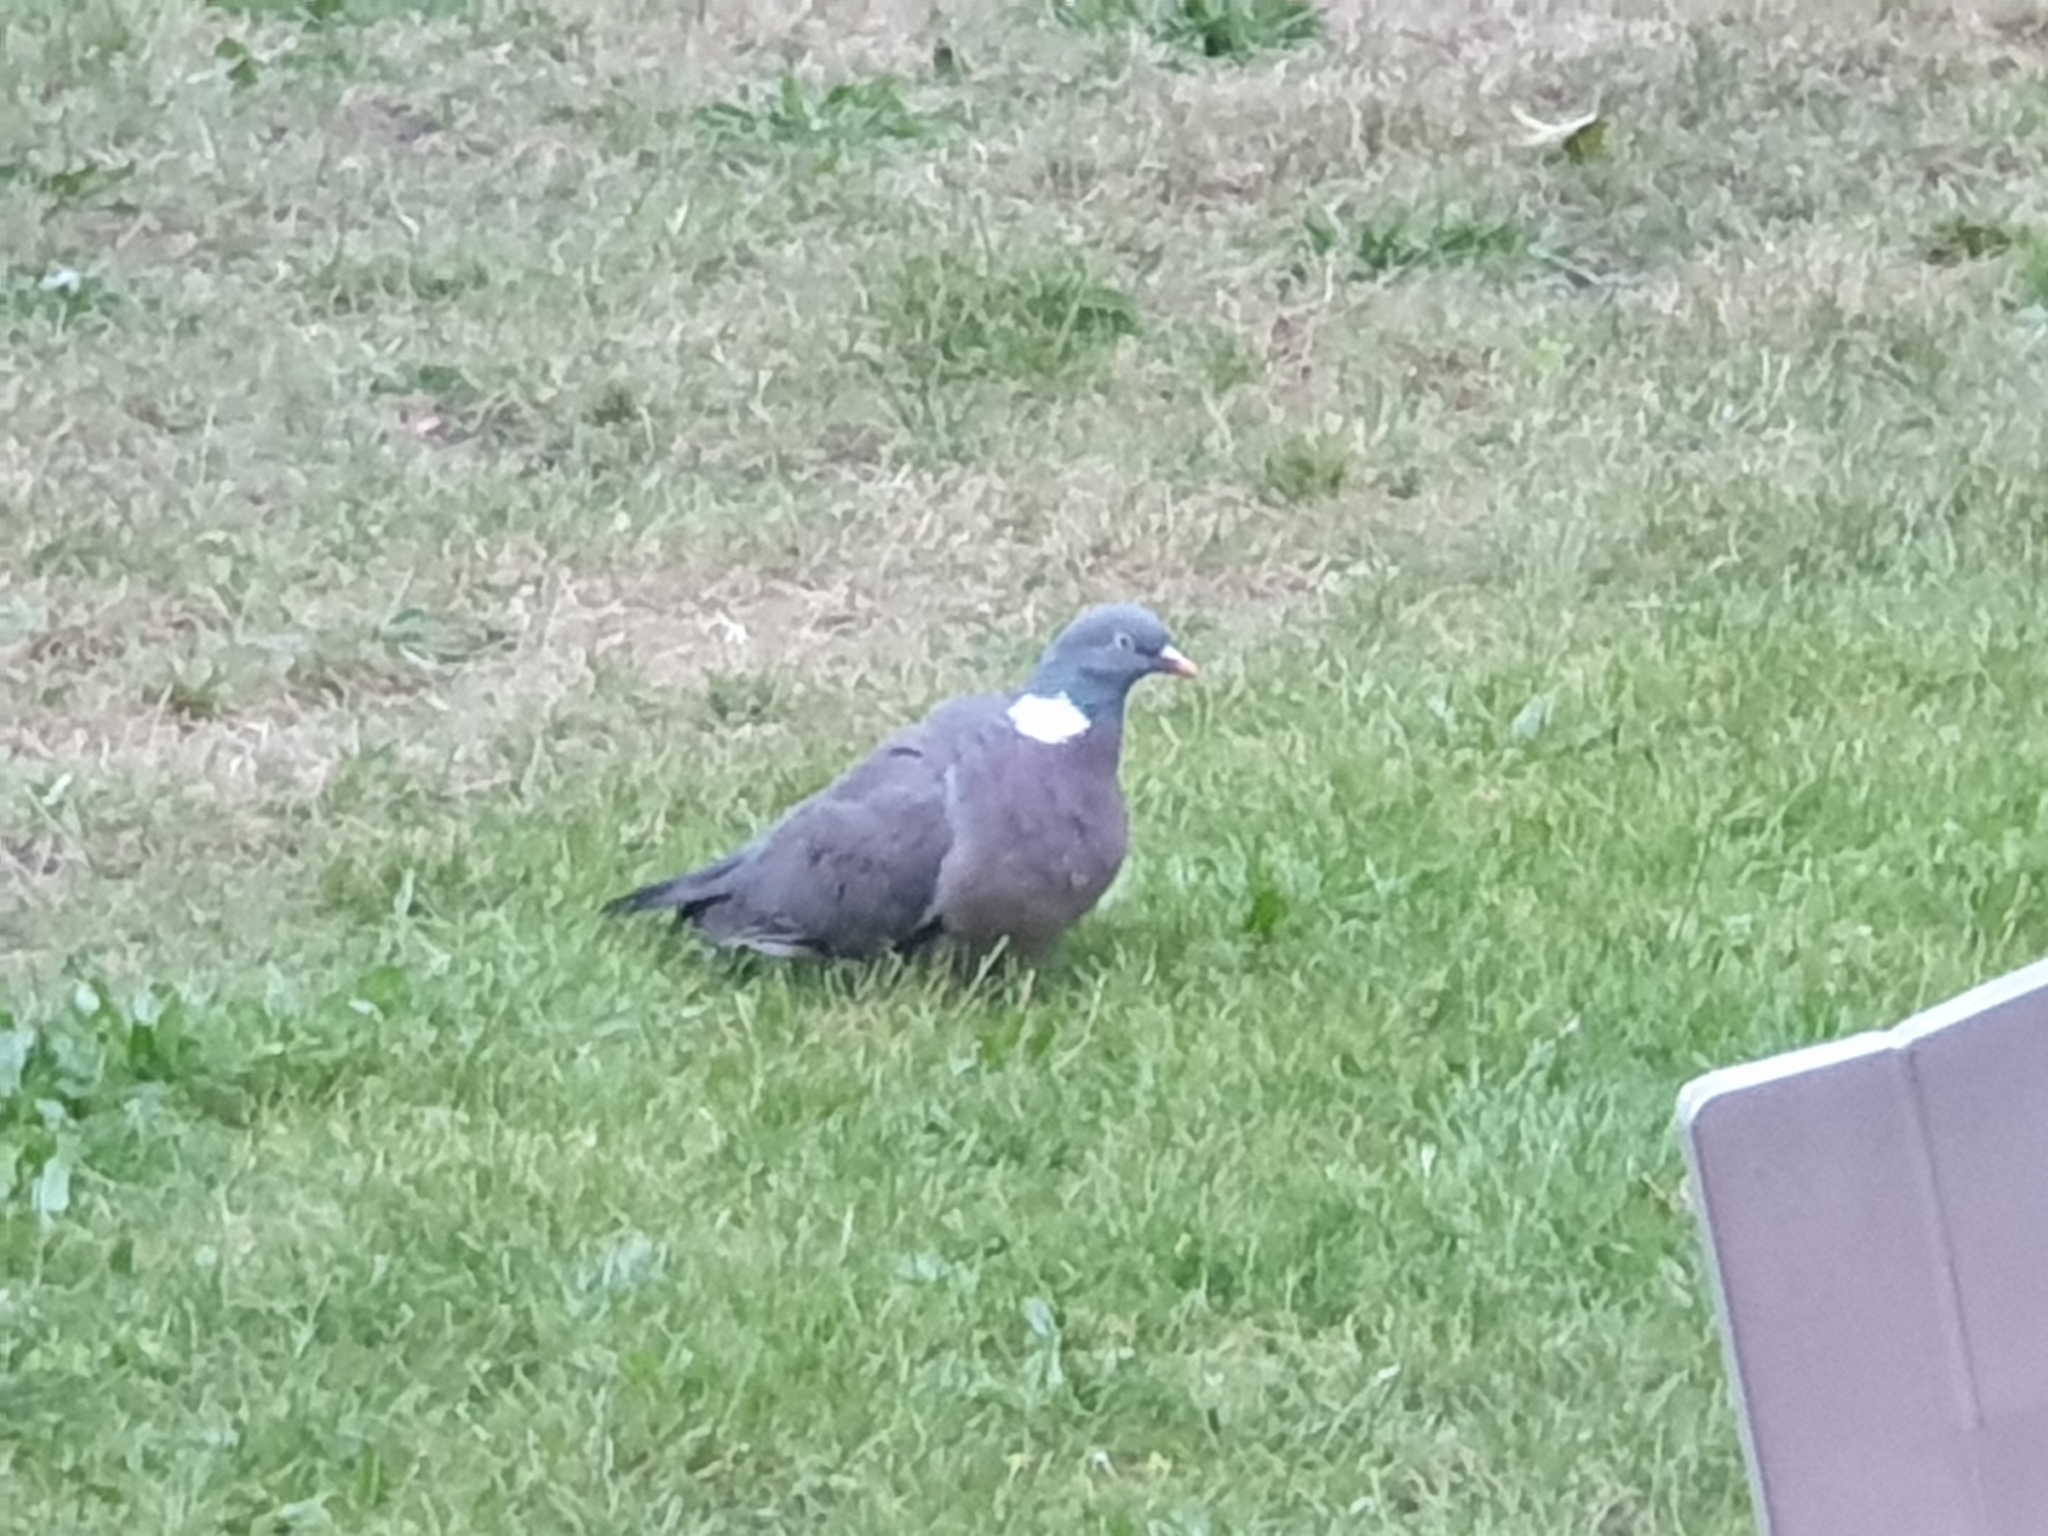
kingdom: Animalia
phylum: Chordata
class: Aves
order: Columbiformes
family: Columbidae
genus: Columba
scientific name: Columba palumbus
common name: Common wood pigeon
